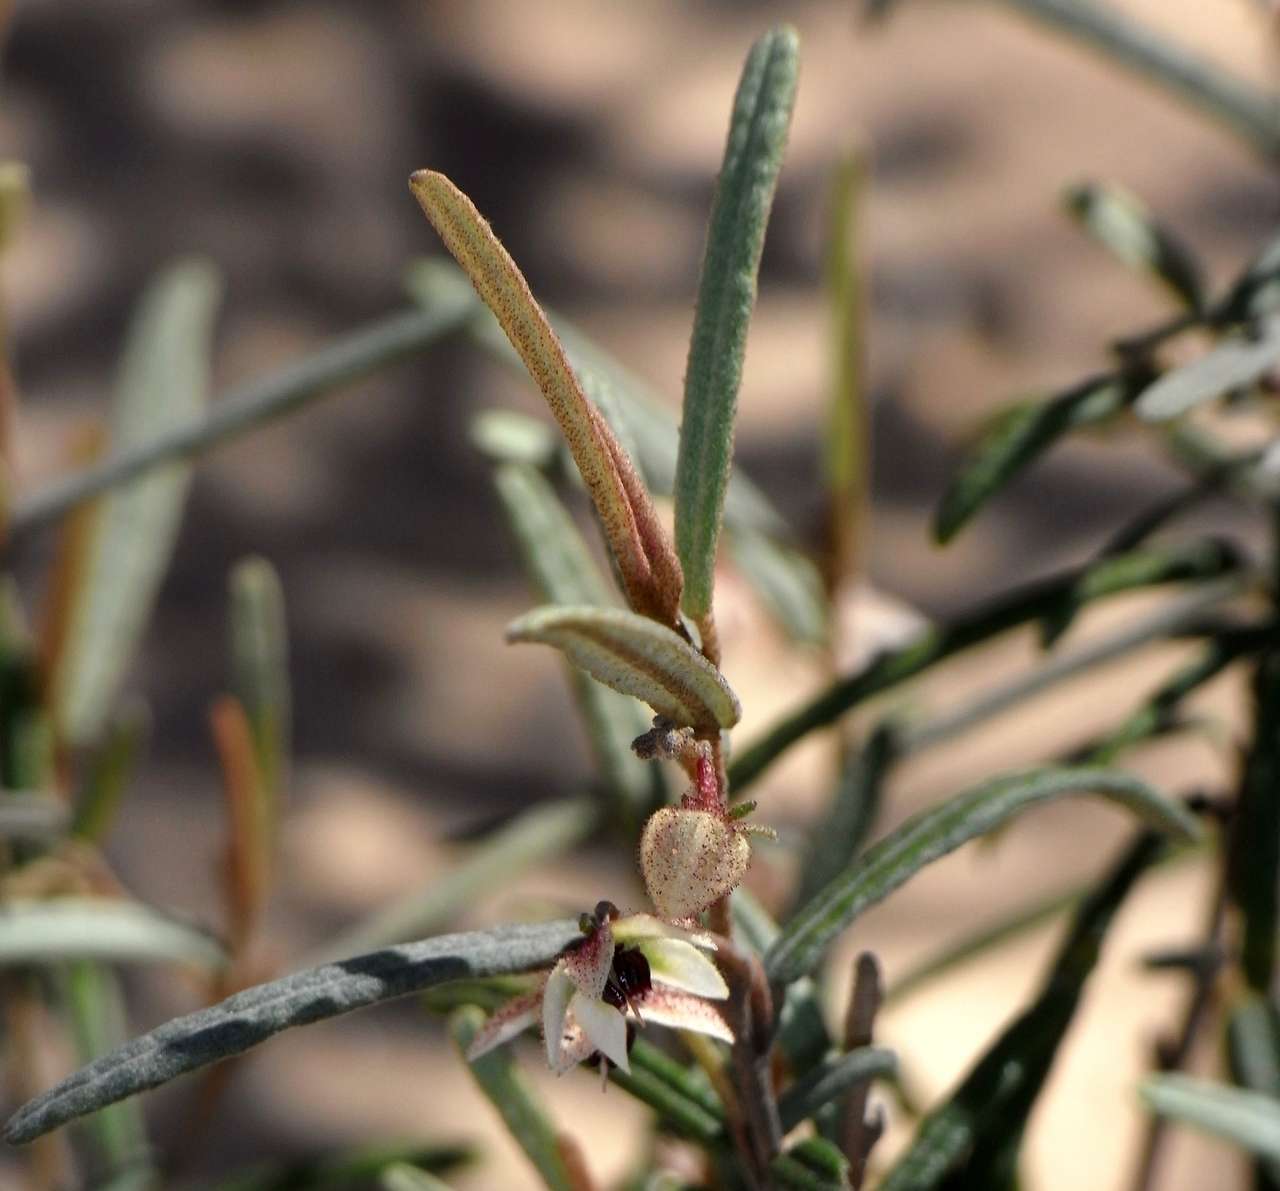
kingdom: Plantae
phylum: Tracheophyta
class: Magnoliopsida
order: Malvales
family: Malvaceae
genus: Lasiopetalum
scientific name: Lasiopetalum baueri
